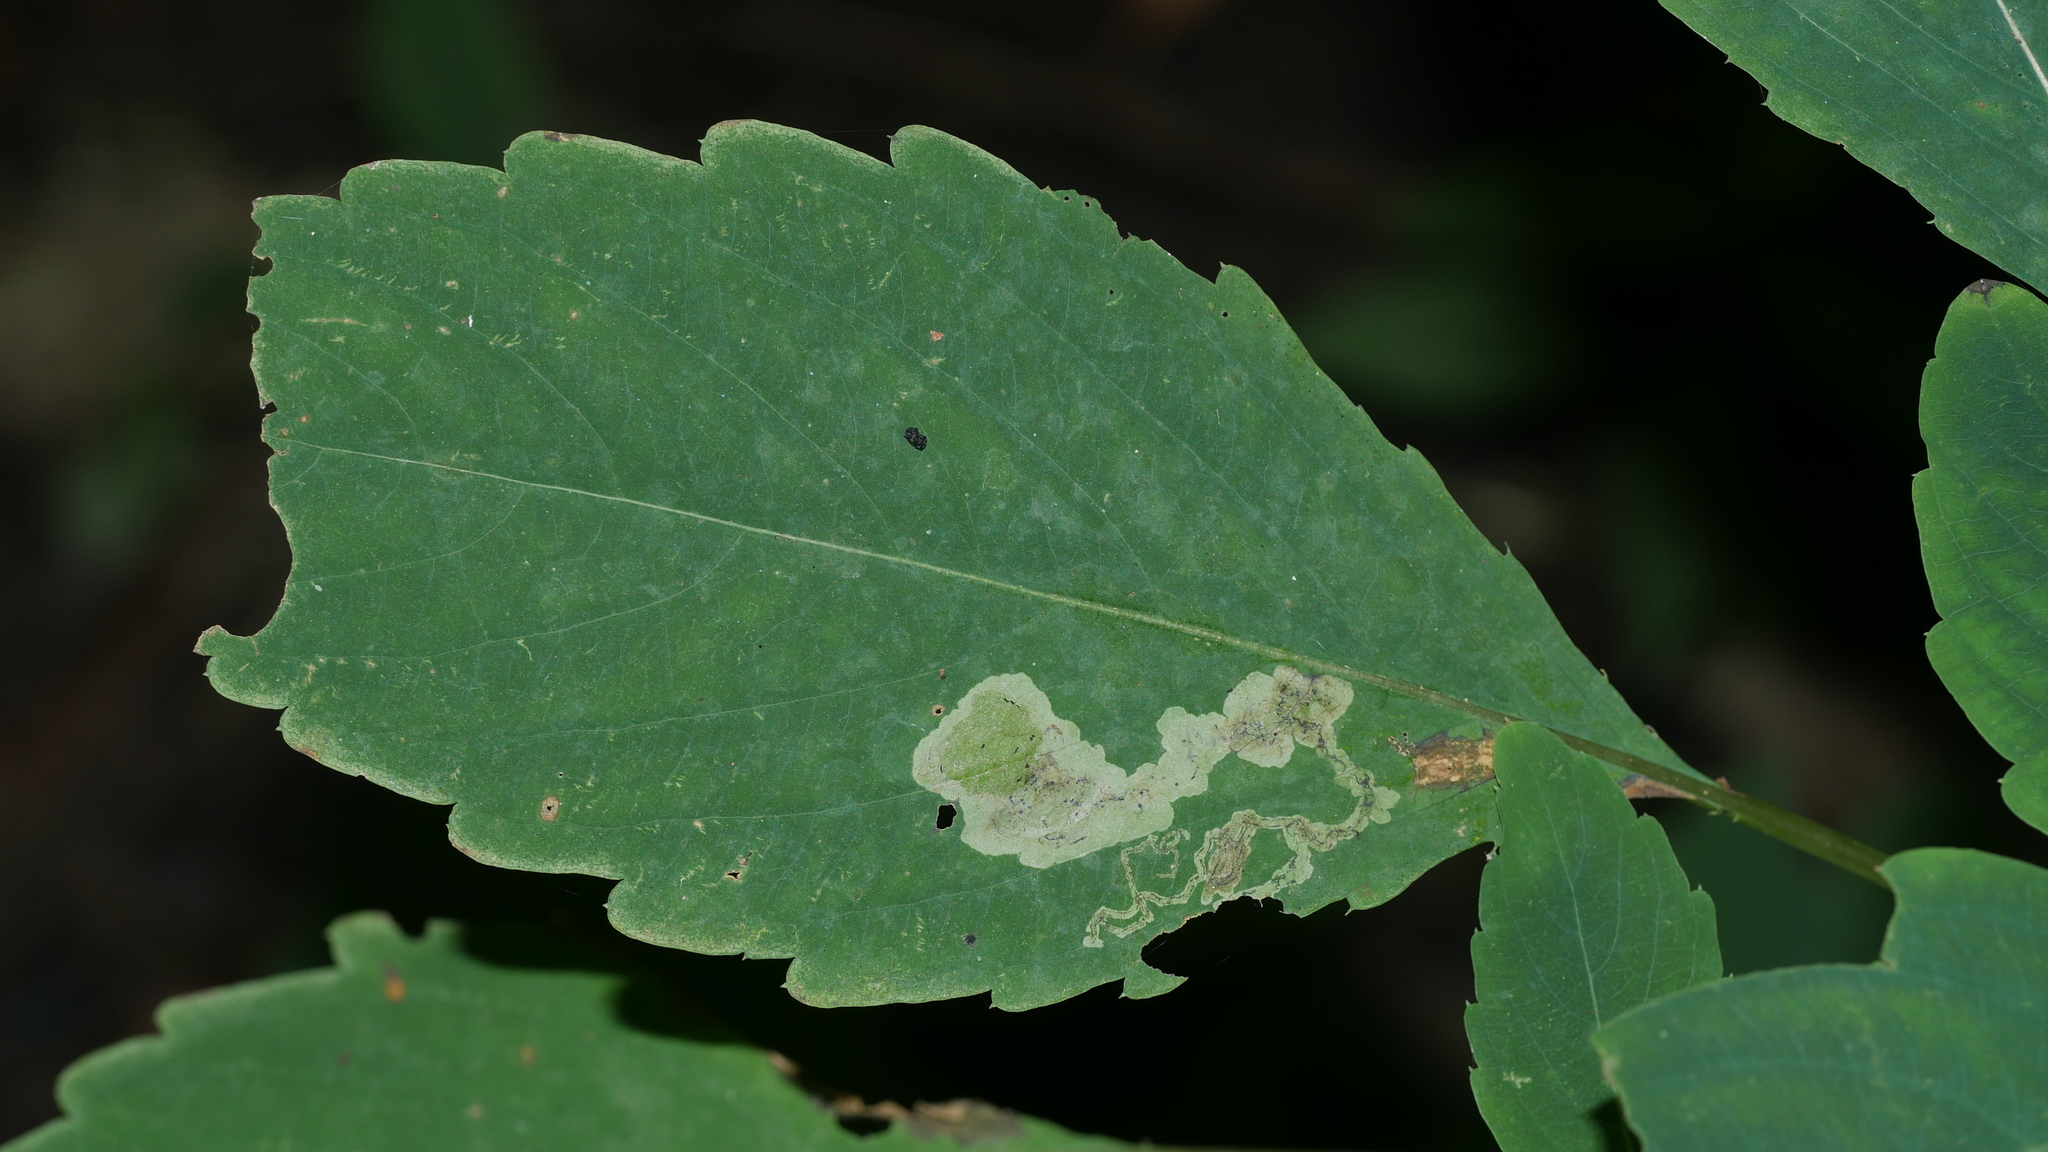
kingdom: Animalia
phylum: Arthropoda
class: Insecta
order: Diptera
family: Agromyzidae
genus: Phytoliriomyza
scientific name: Phytoliriomyza melampyga
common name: Jewelweed leaf-miner fly
